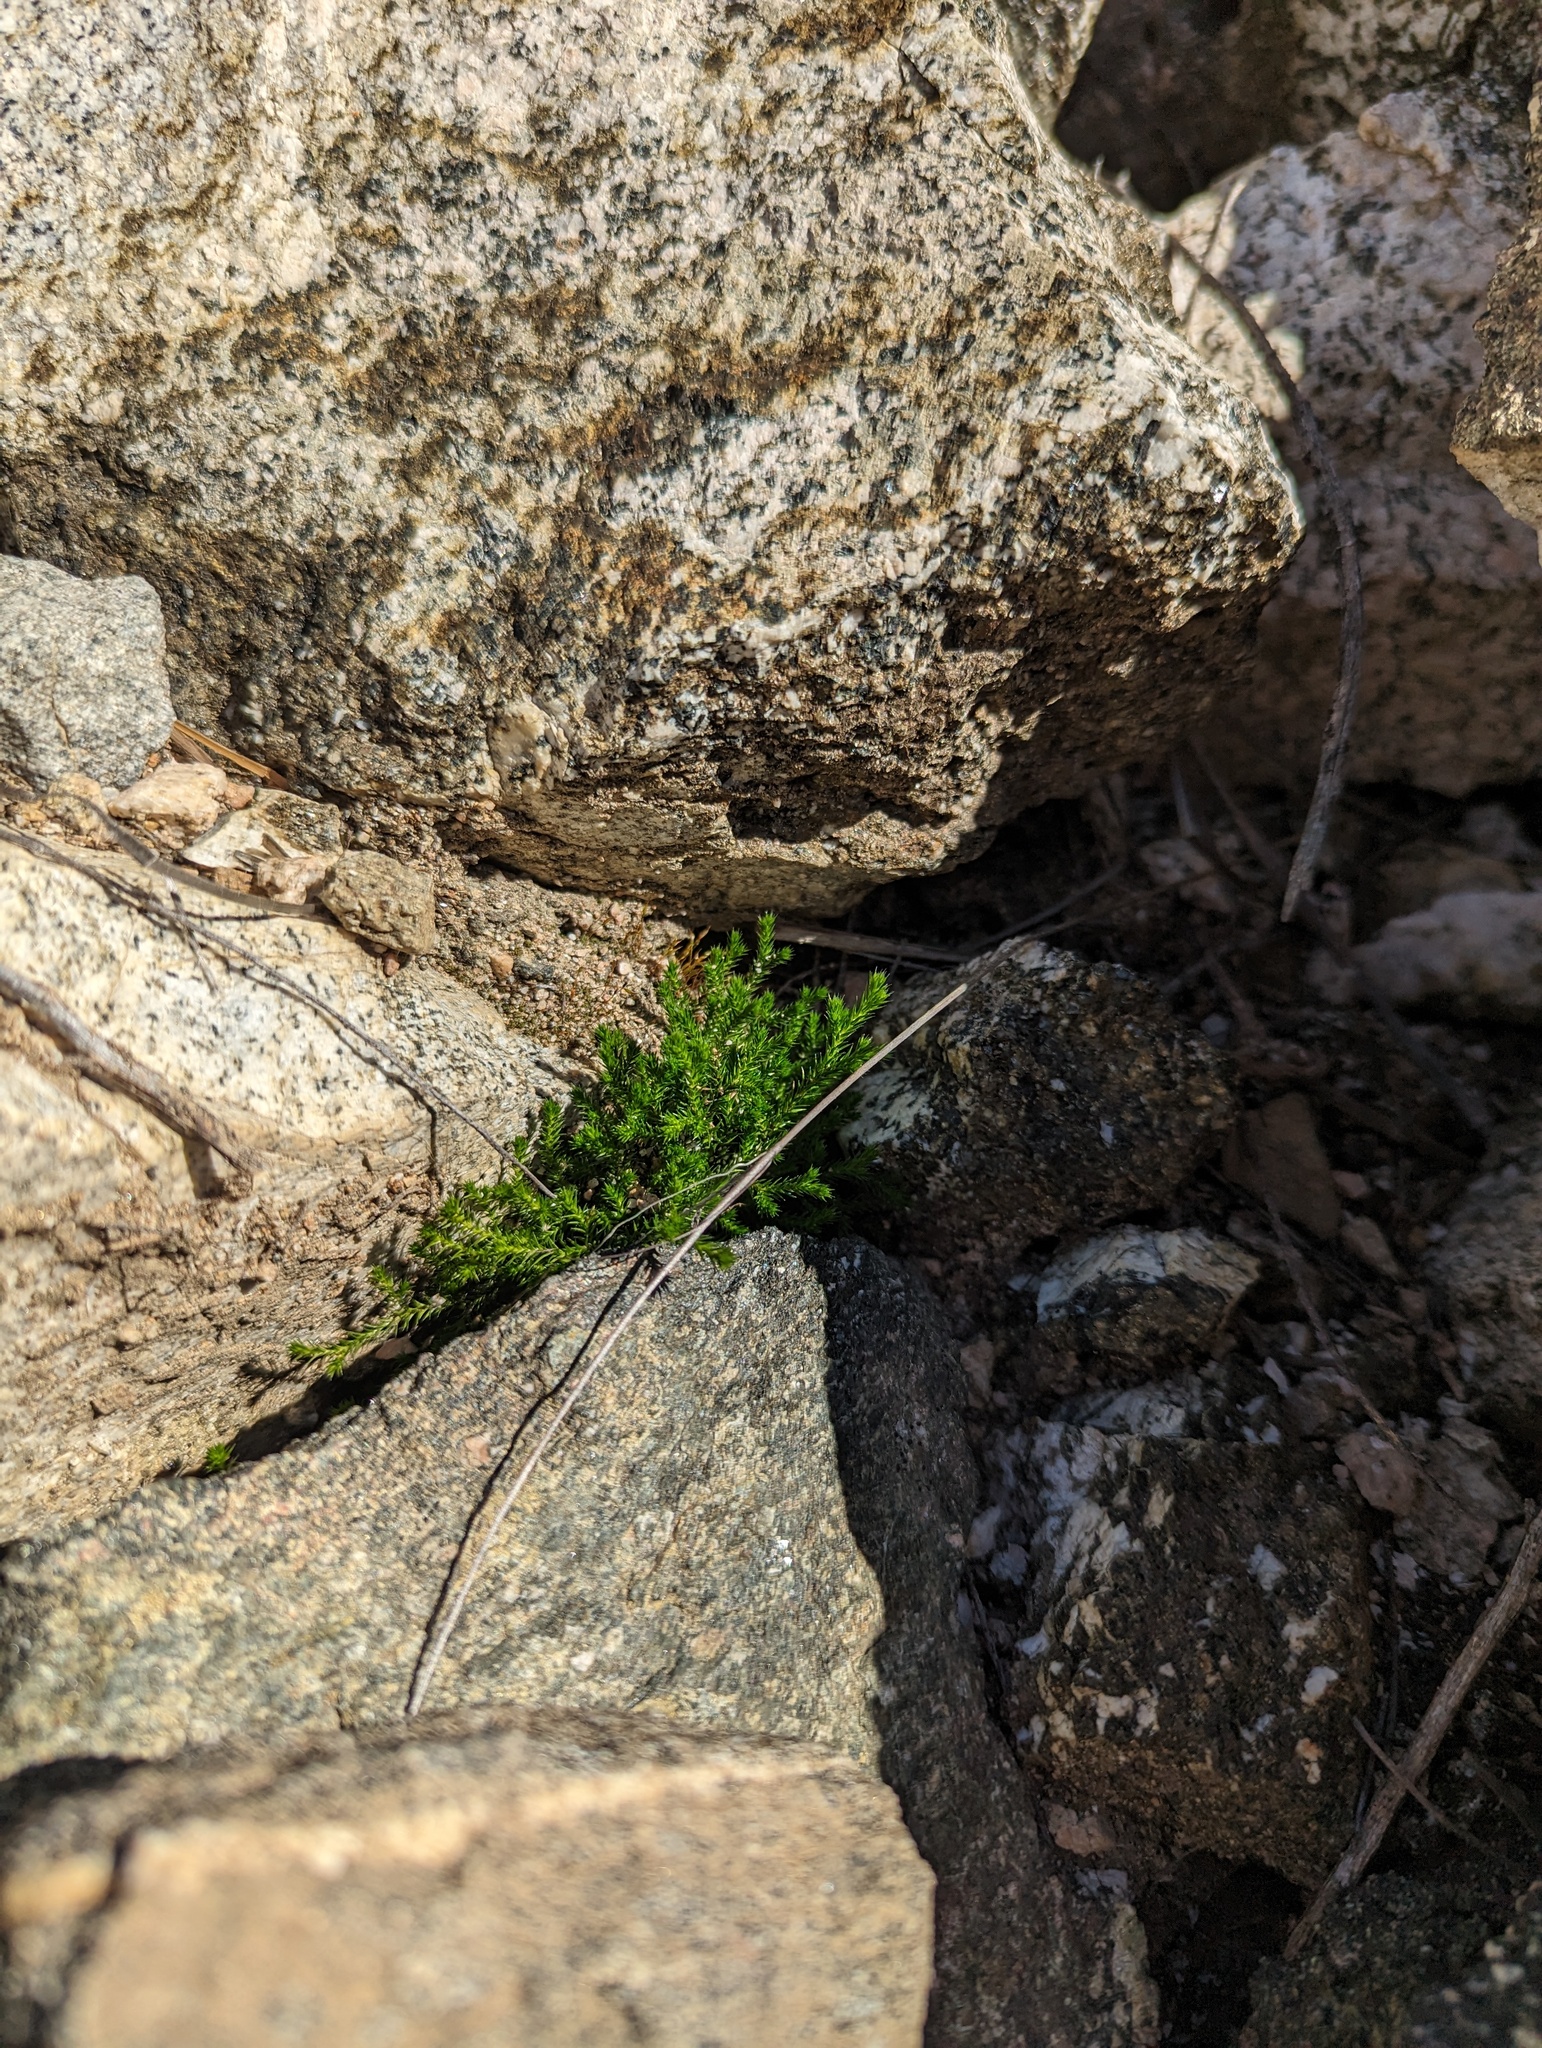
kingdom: Plantae
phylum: Tracheophyta
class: Lycopodiopsida
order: Selaginellales
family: Selaginellaceae
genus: Selaginella
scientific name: Selaginella bigelovii
